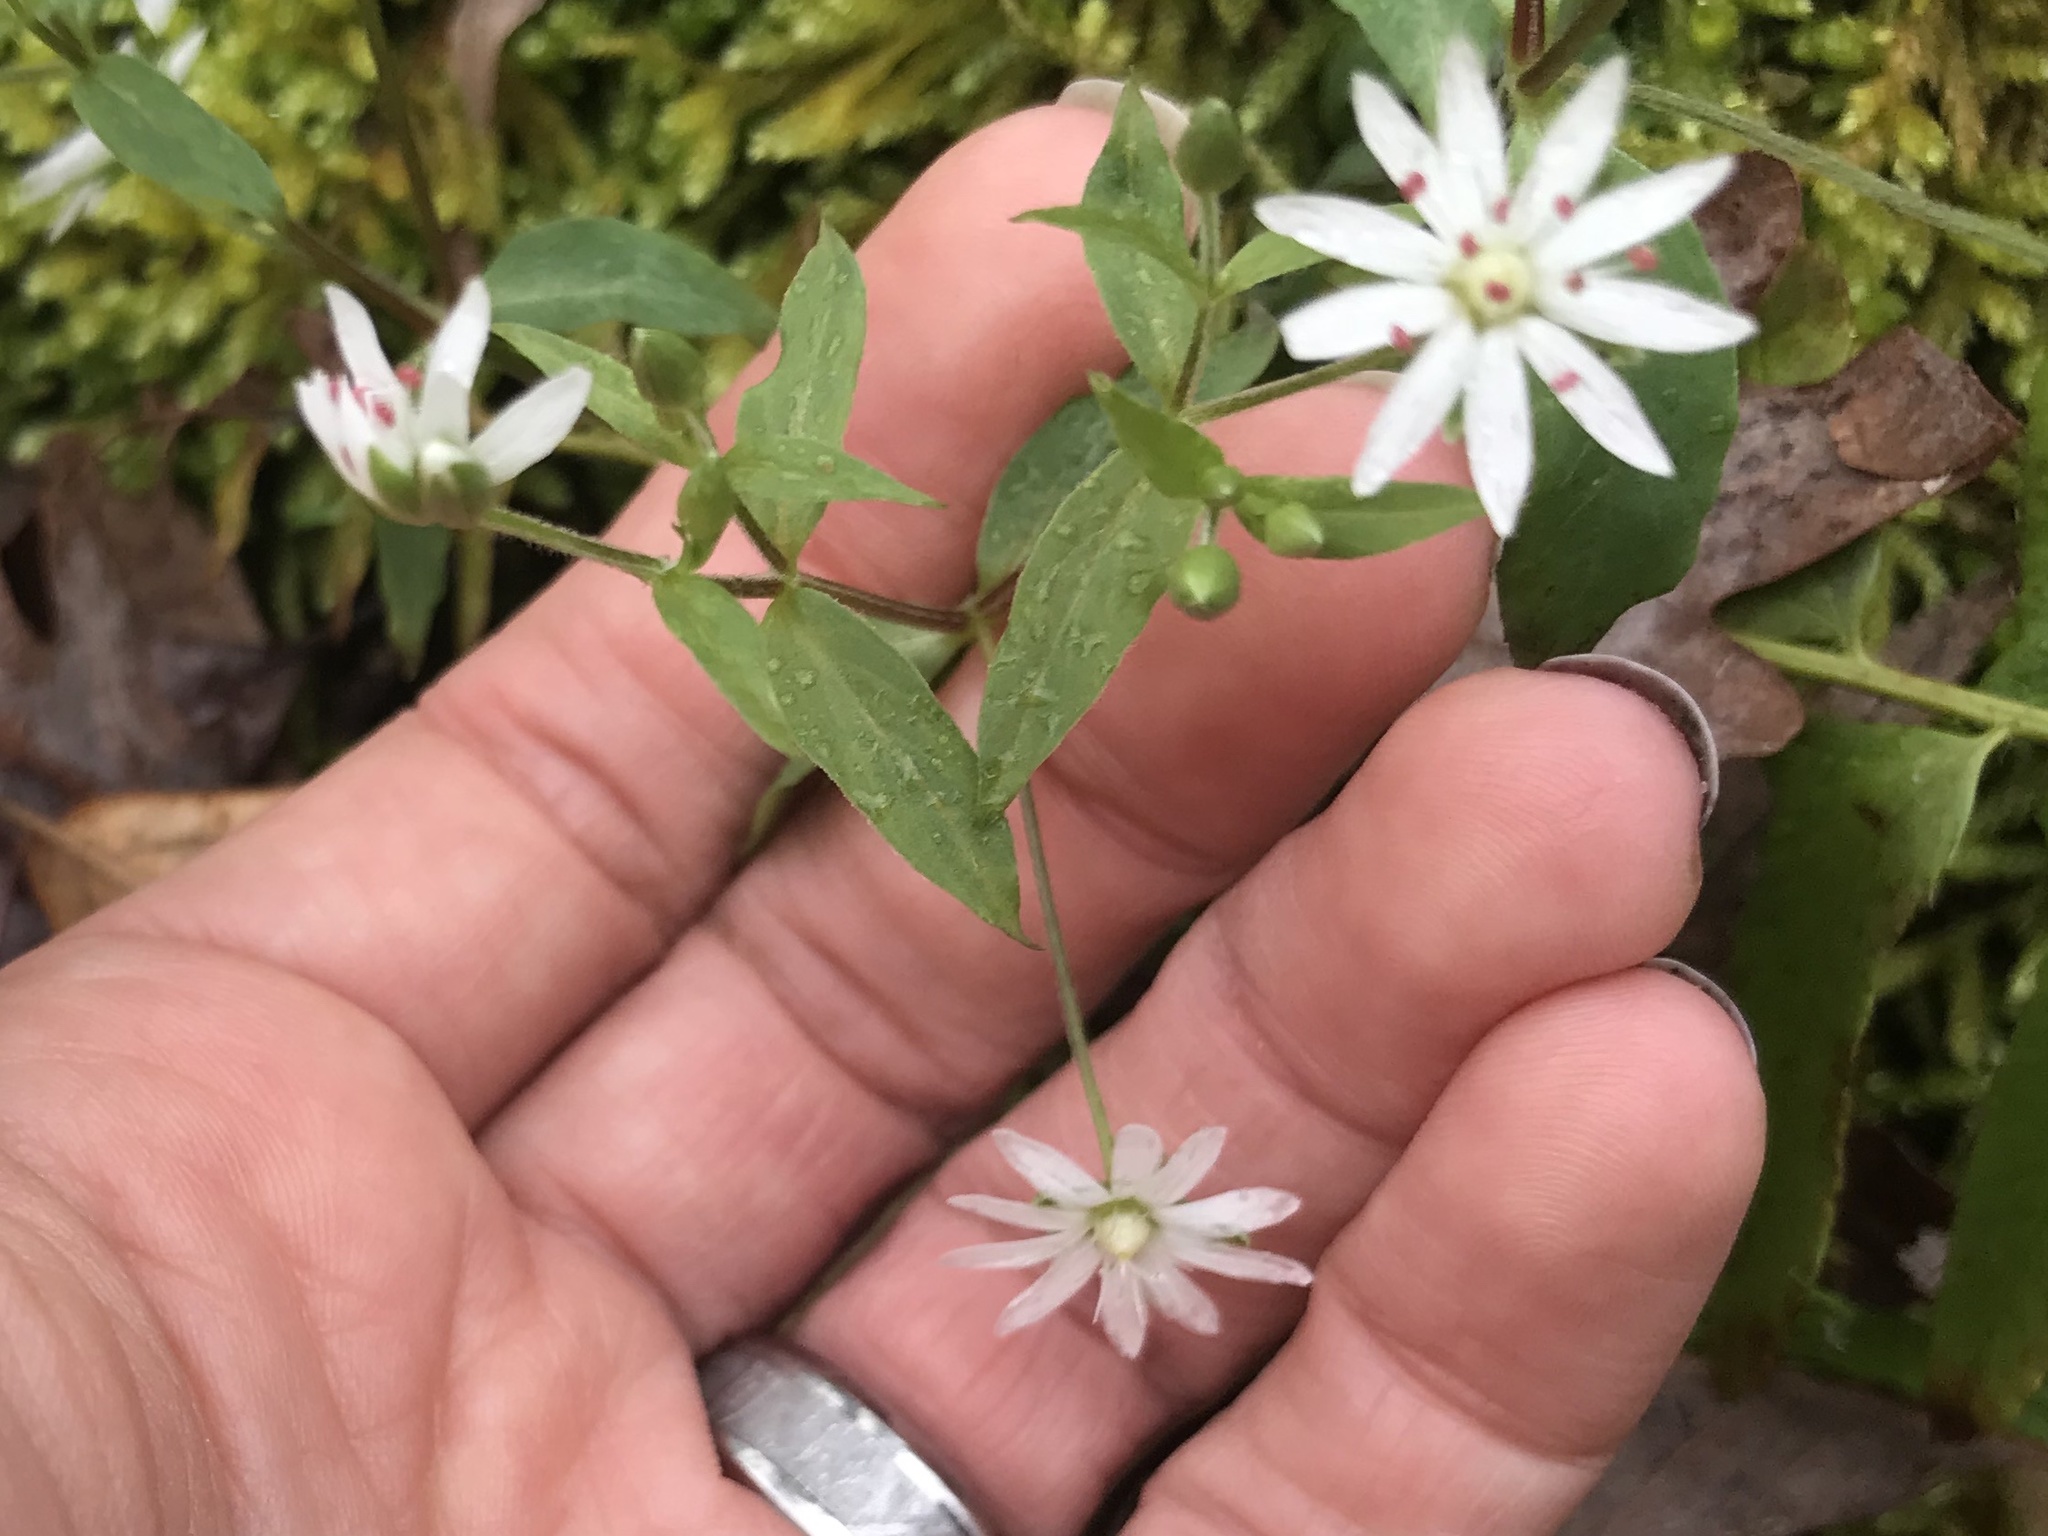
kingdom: Plantae
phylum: Tracheophyta
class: Magnoliopsida
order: Caryophyllales
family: Caryophyllaceae
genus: Stellaria
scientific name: Stellaria pubera
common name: Star chickweed
